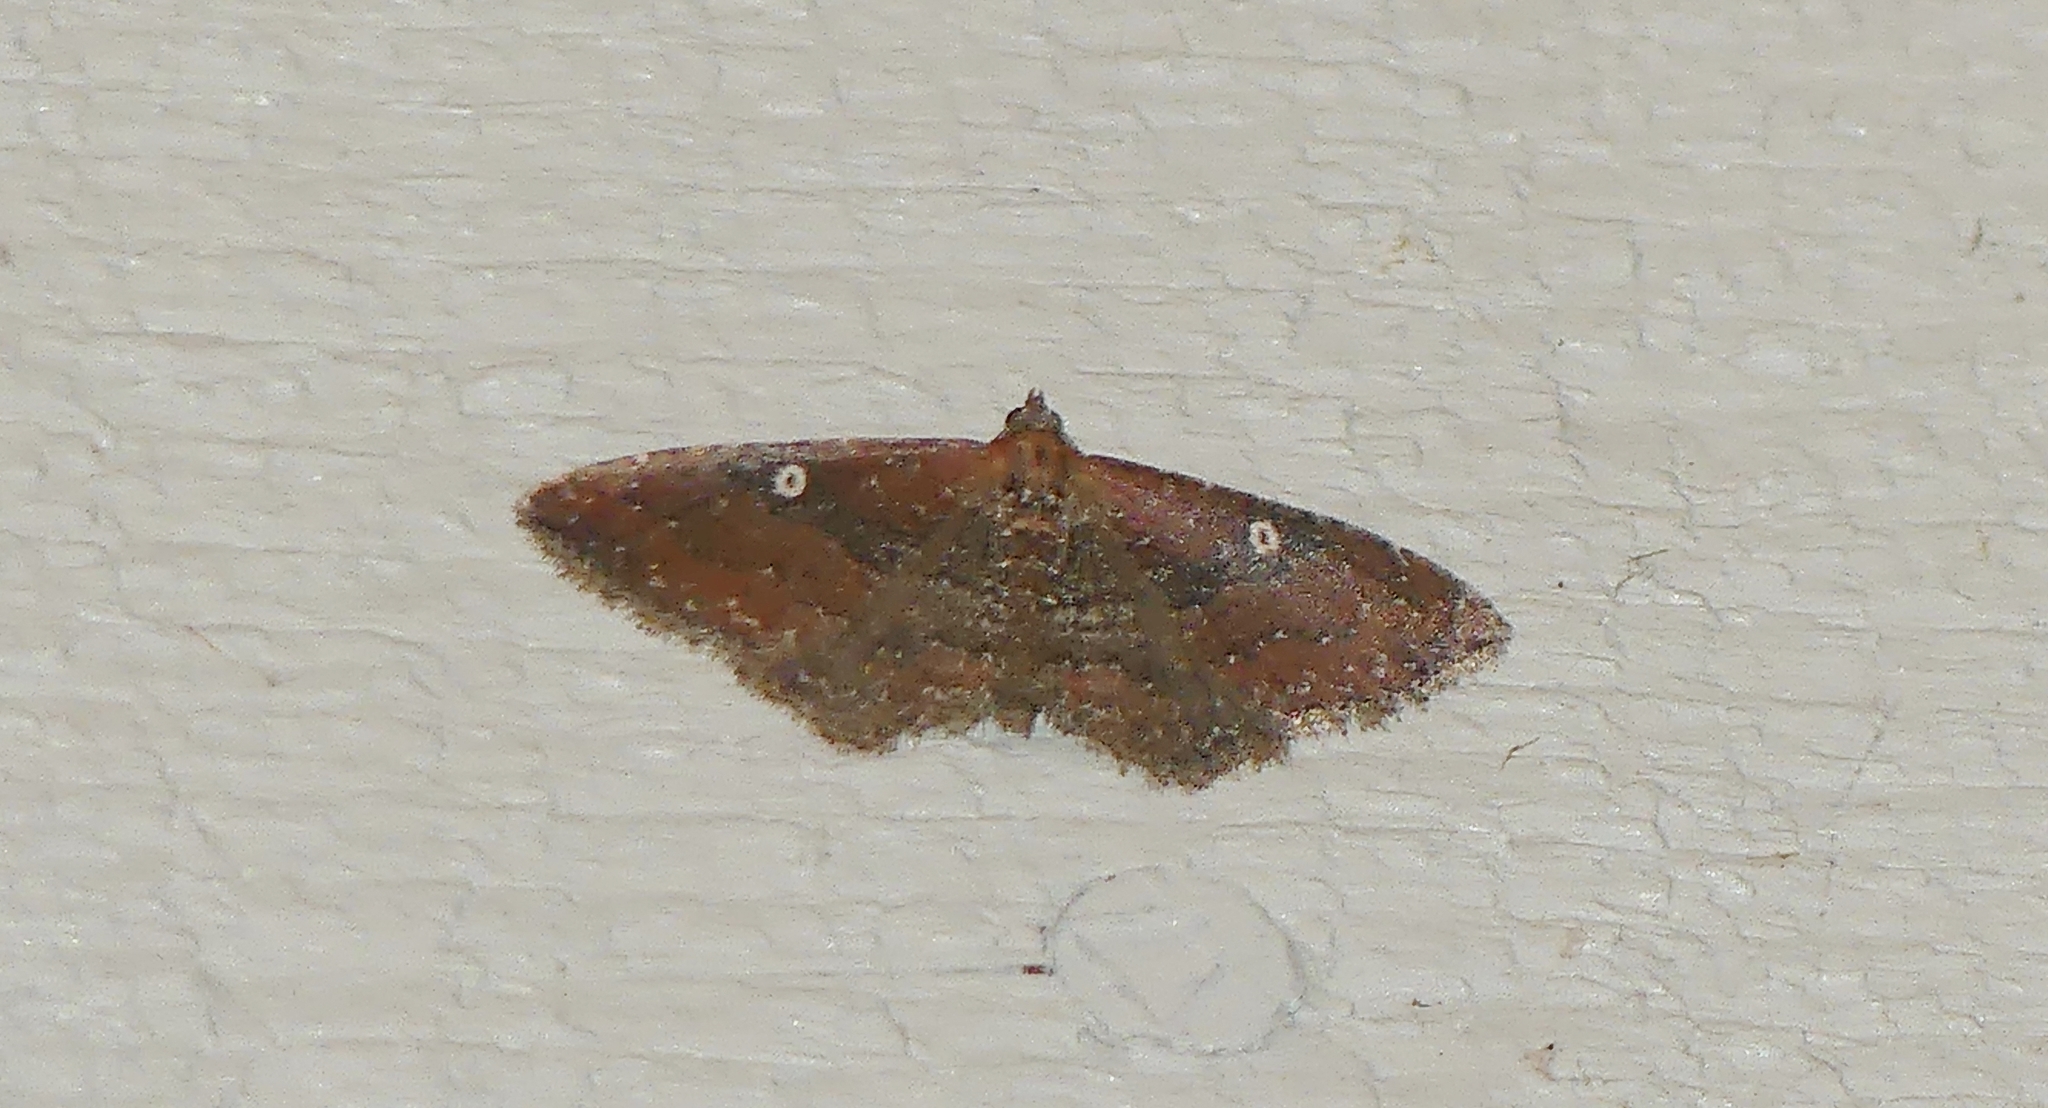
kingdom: Animalia
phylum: Arthropoda
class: Insecta
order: Lepidoptera
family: Geometridae
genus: Orthonama
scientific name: Orthonama obstipata
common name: The gem
